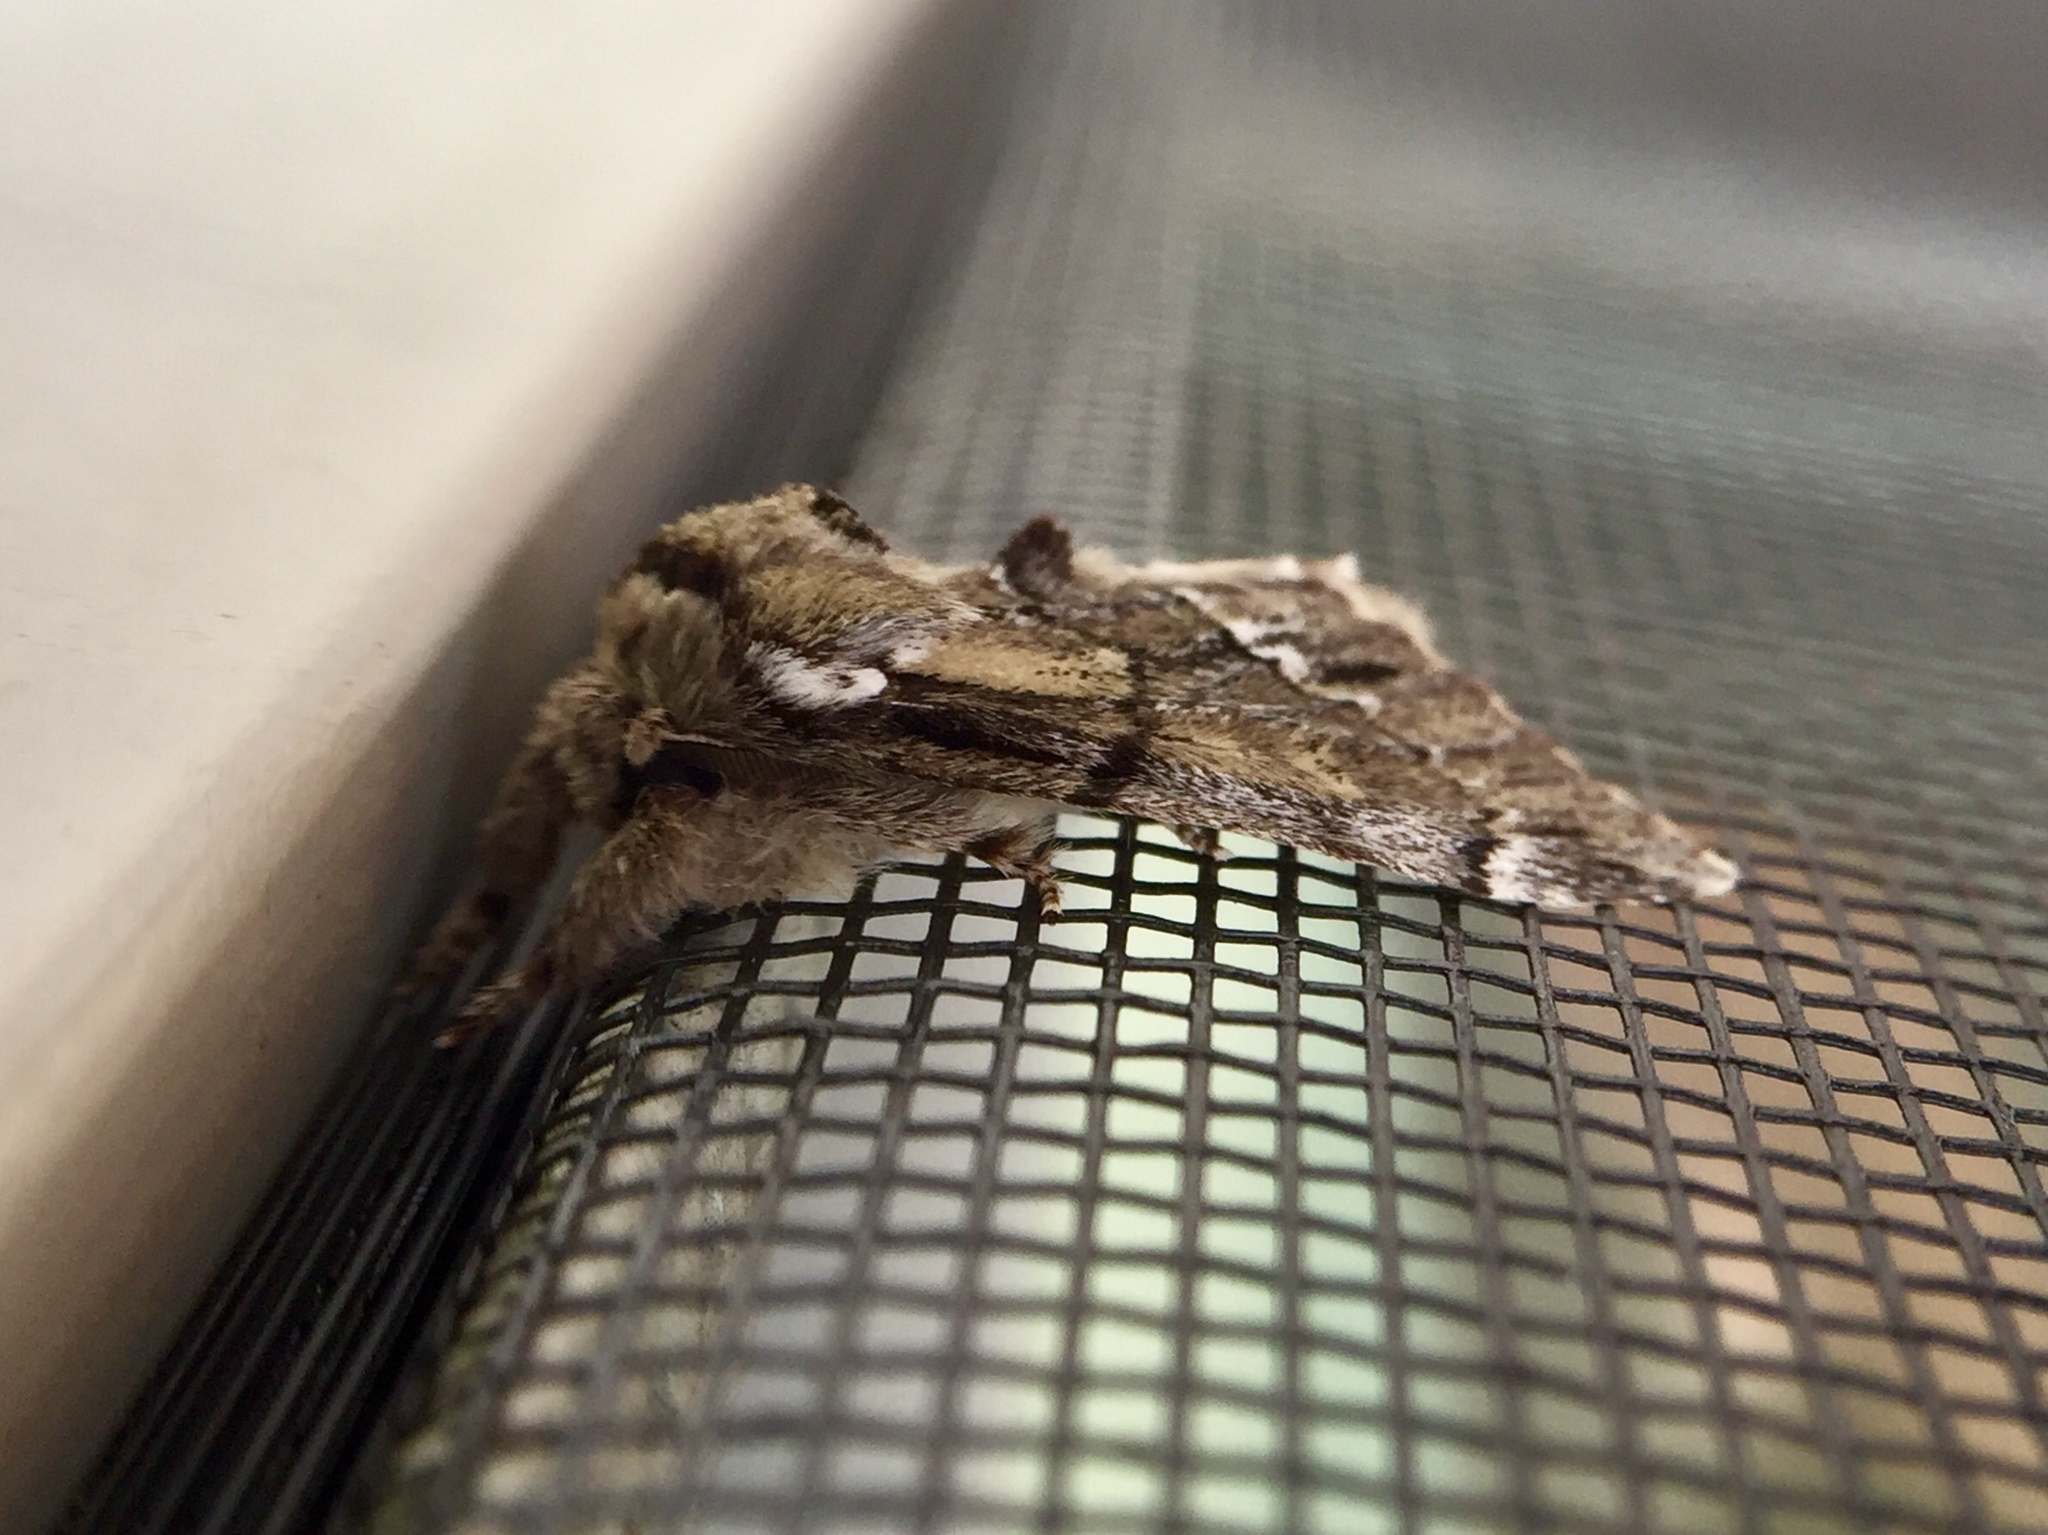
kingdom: Animalia
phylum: Arthropoda
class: Insecta
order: Lepidoptera
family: Notodontidae
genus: Paraeschra
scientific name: Paraeschra georgica
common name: Georgian prominent
